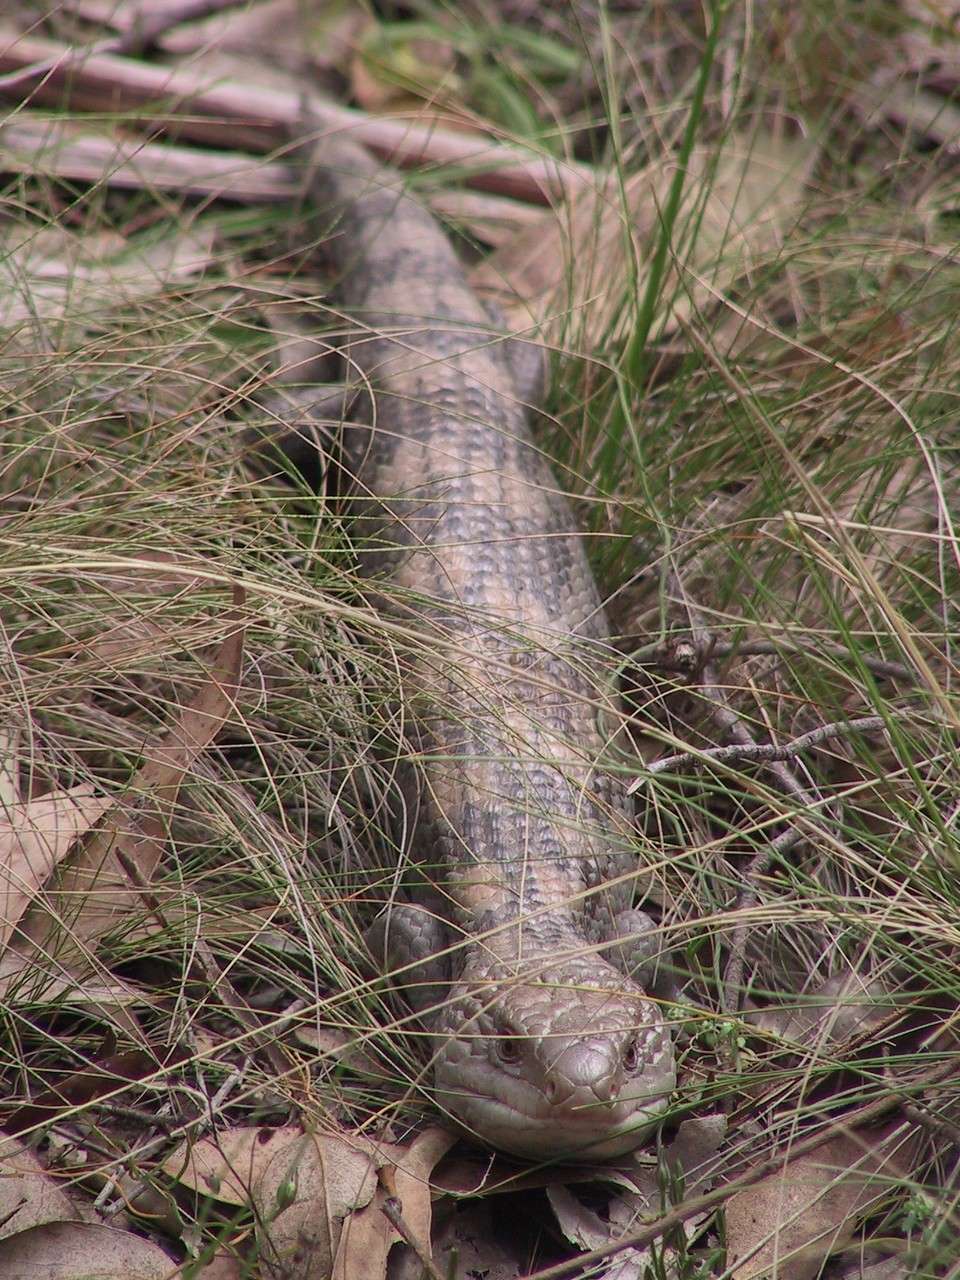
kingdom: Animalia
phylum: Chordata
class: Squamata
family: Scincidae
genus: Tiliqua
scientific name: Tiliqua nigrolutea
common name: Blotched blue-tongued lizard
